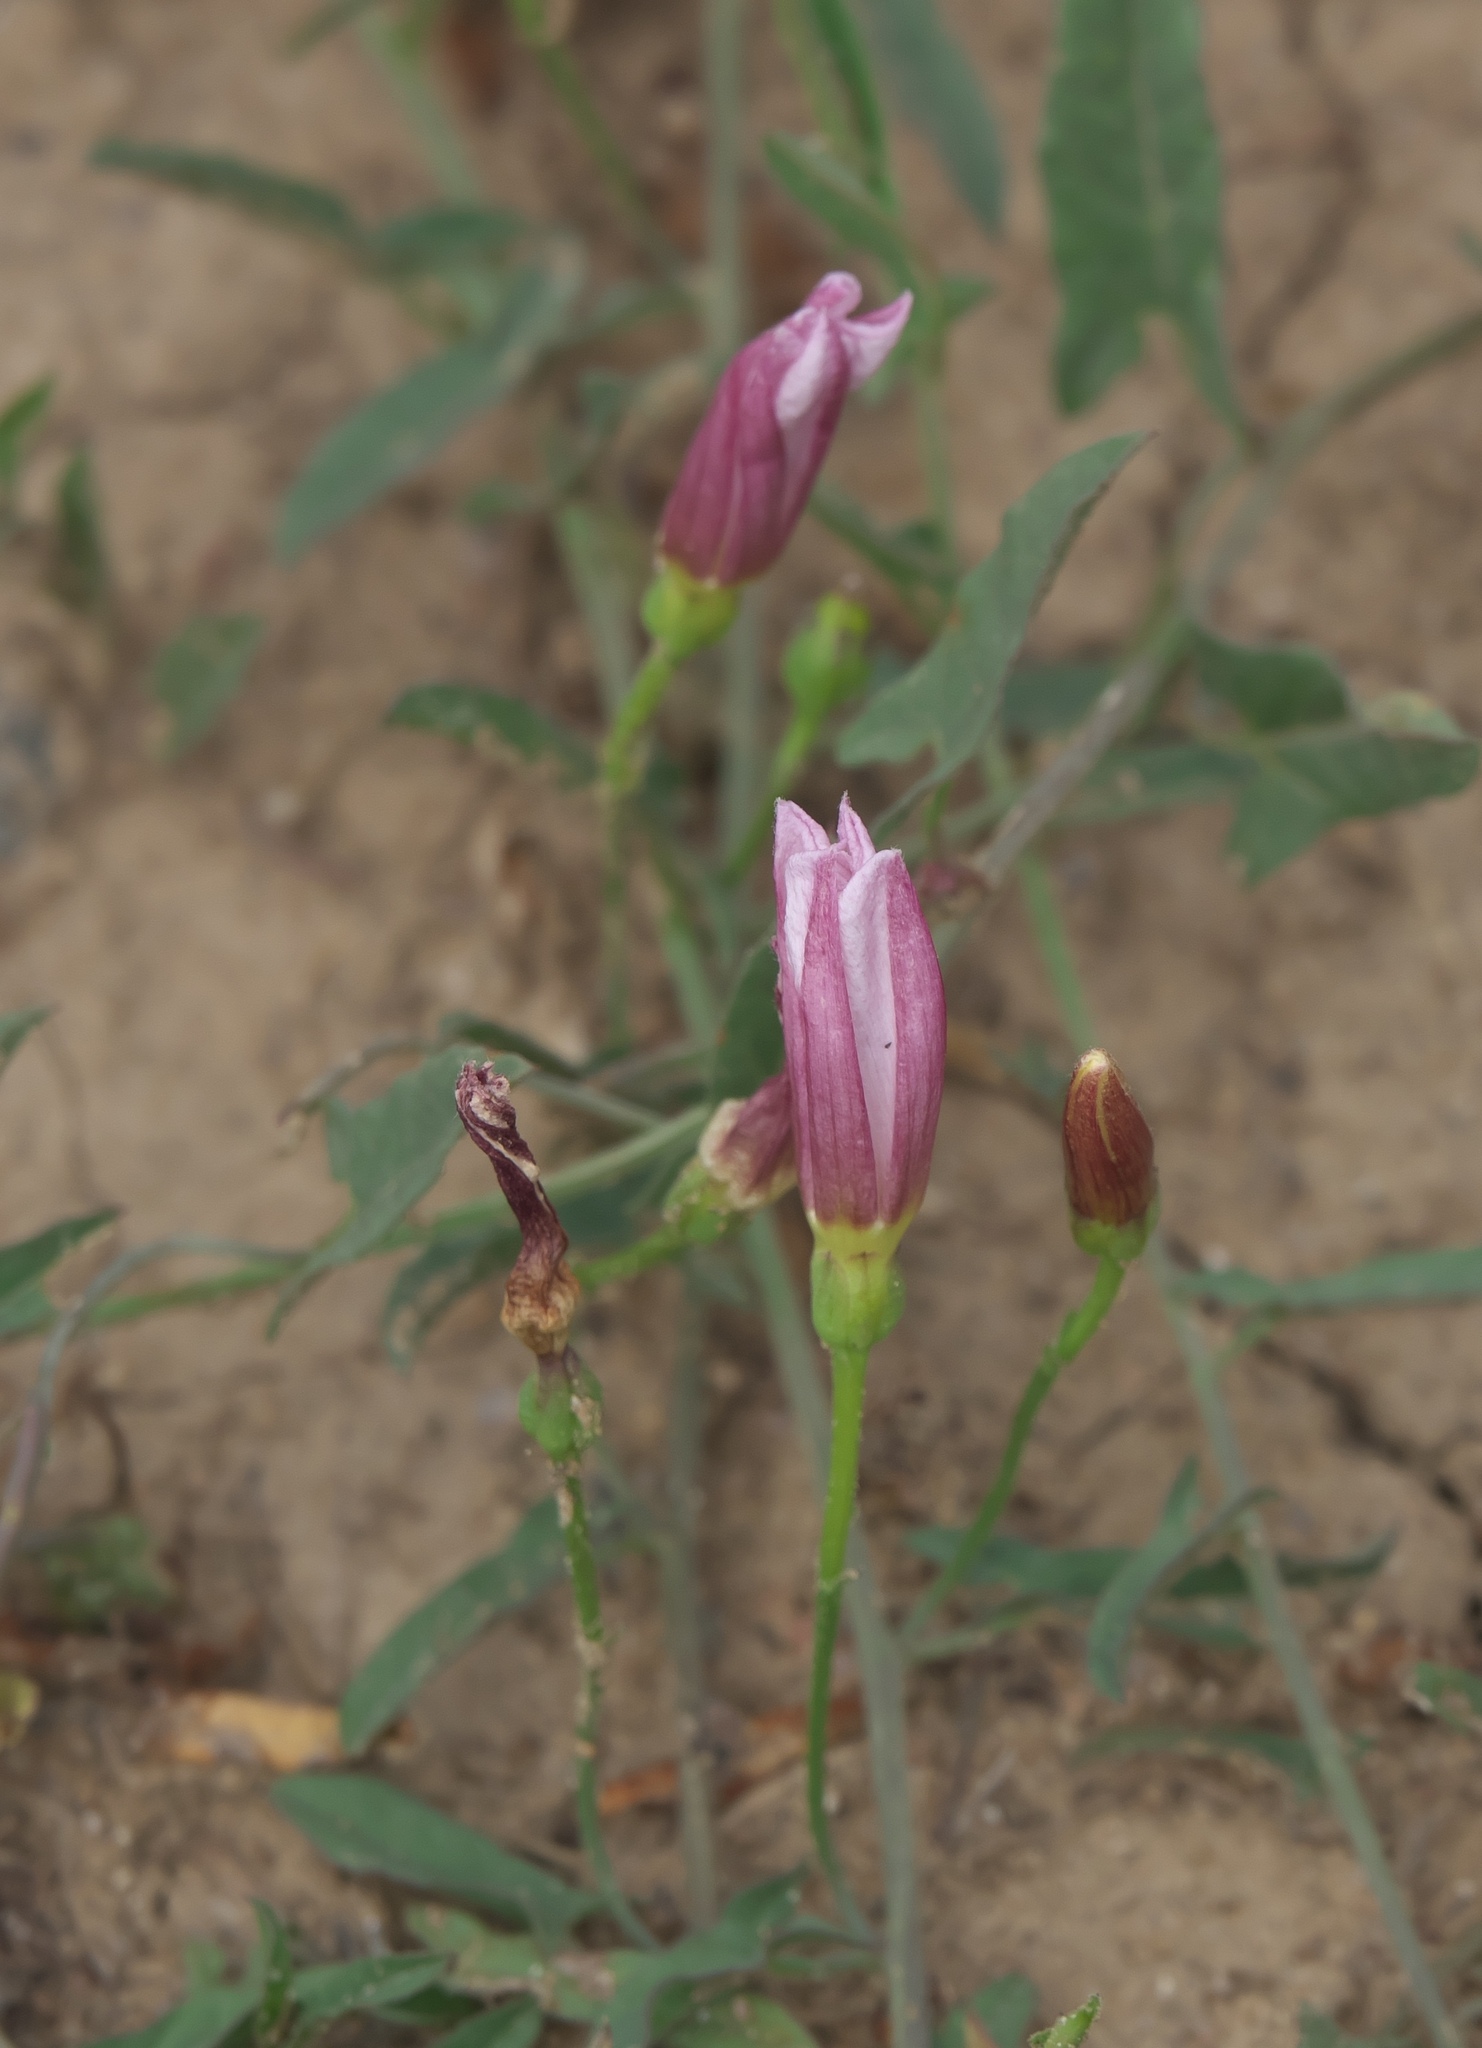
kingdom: Plantae
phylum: Tracheophyta
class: Magnoliopsida
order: Solanales
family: Convolvulaceae
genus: Convolvulus
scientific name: Convolvulus arvensis
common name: Field bindweed
